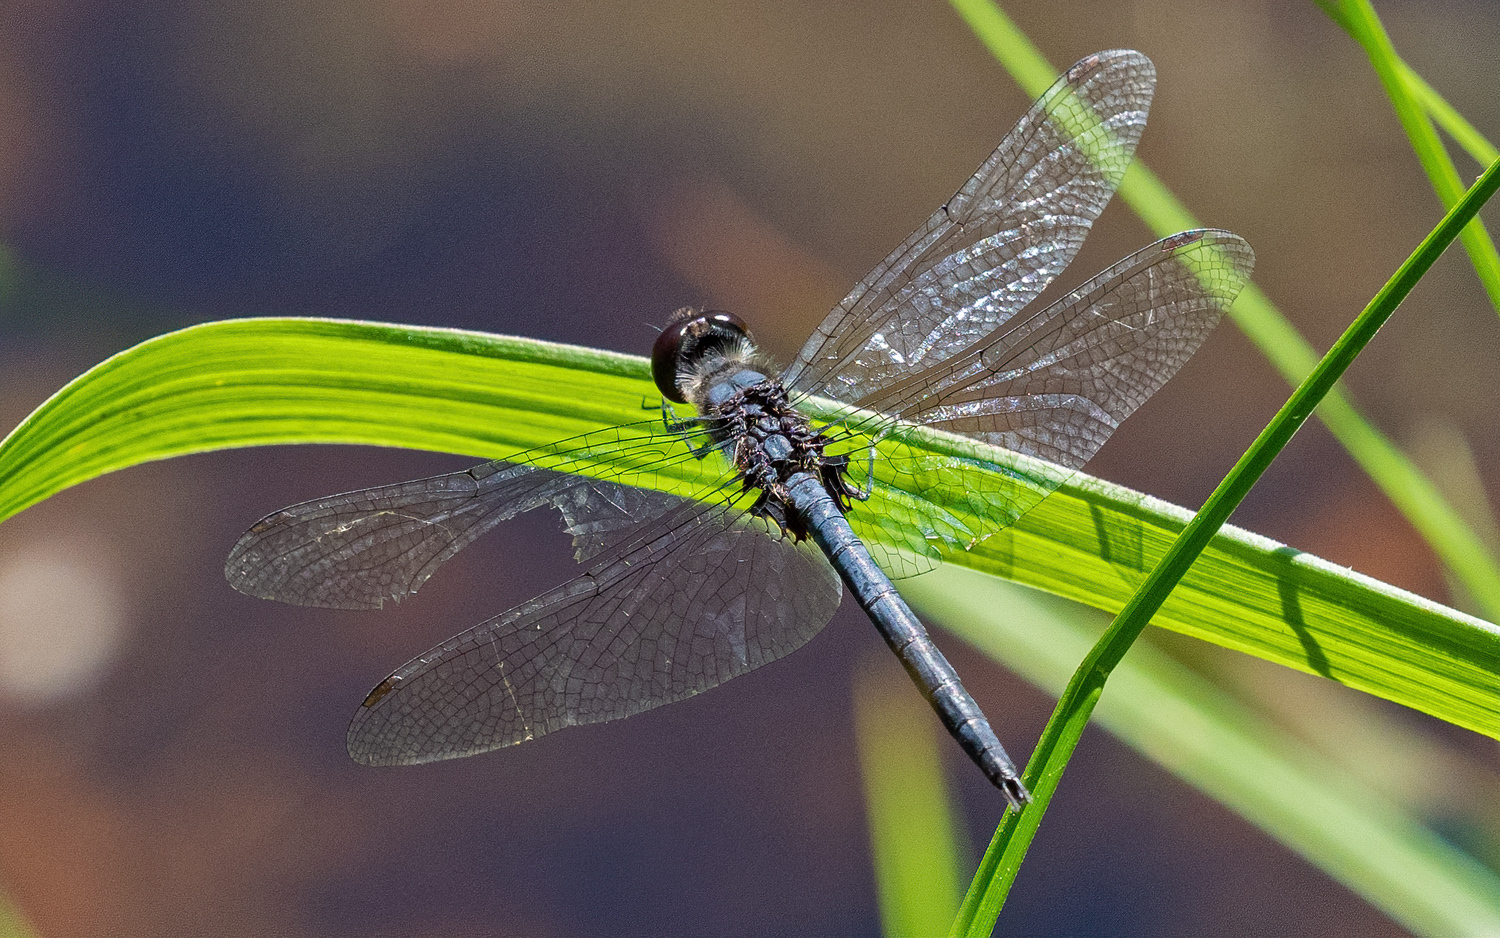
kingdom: Animalia
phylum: Arthropoda
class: Insecta
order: Odonata
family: Libellulidae
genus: Celithemis
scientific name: Celithemis verna
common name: Double-ringed pennant
